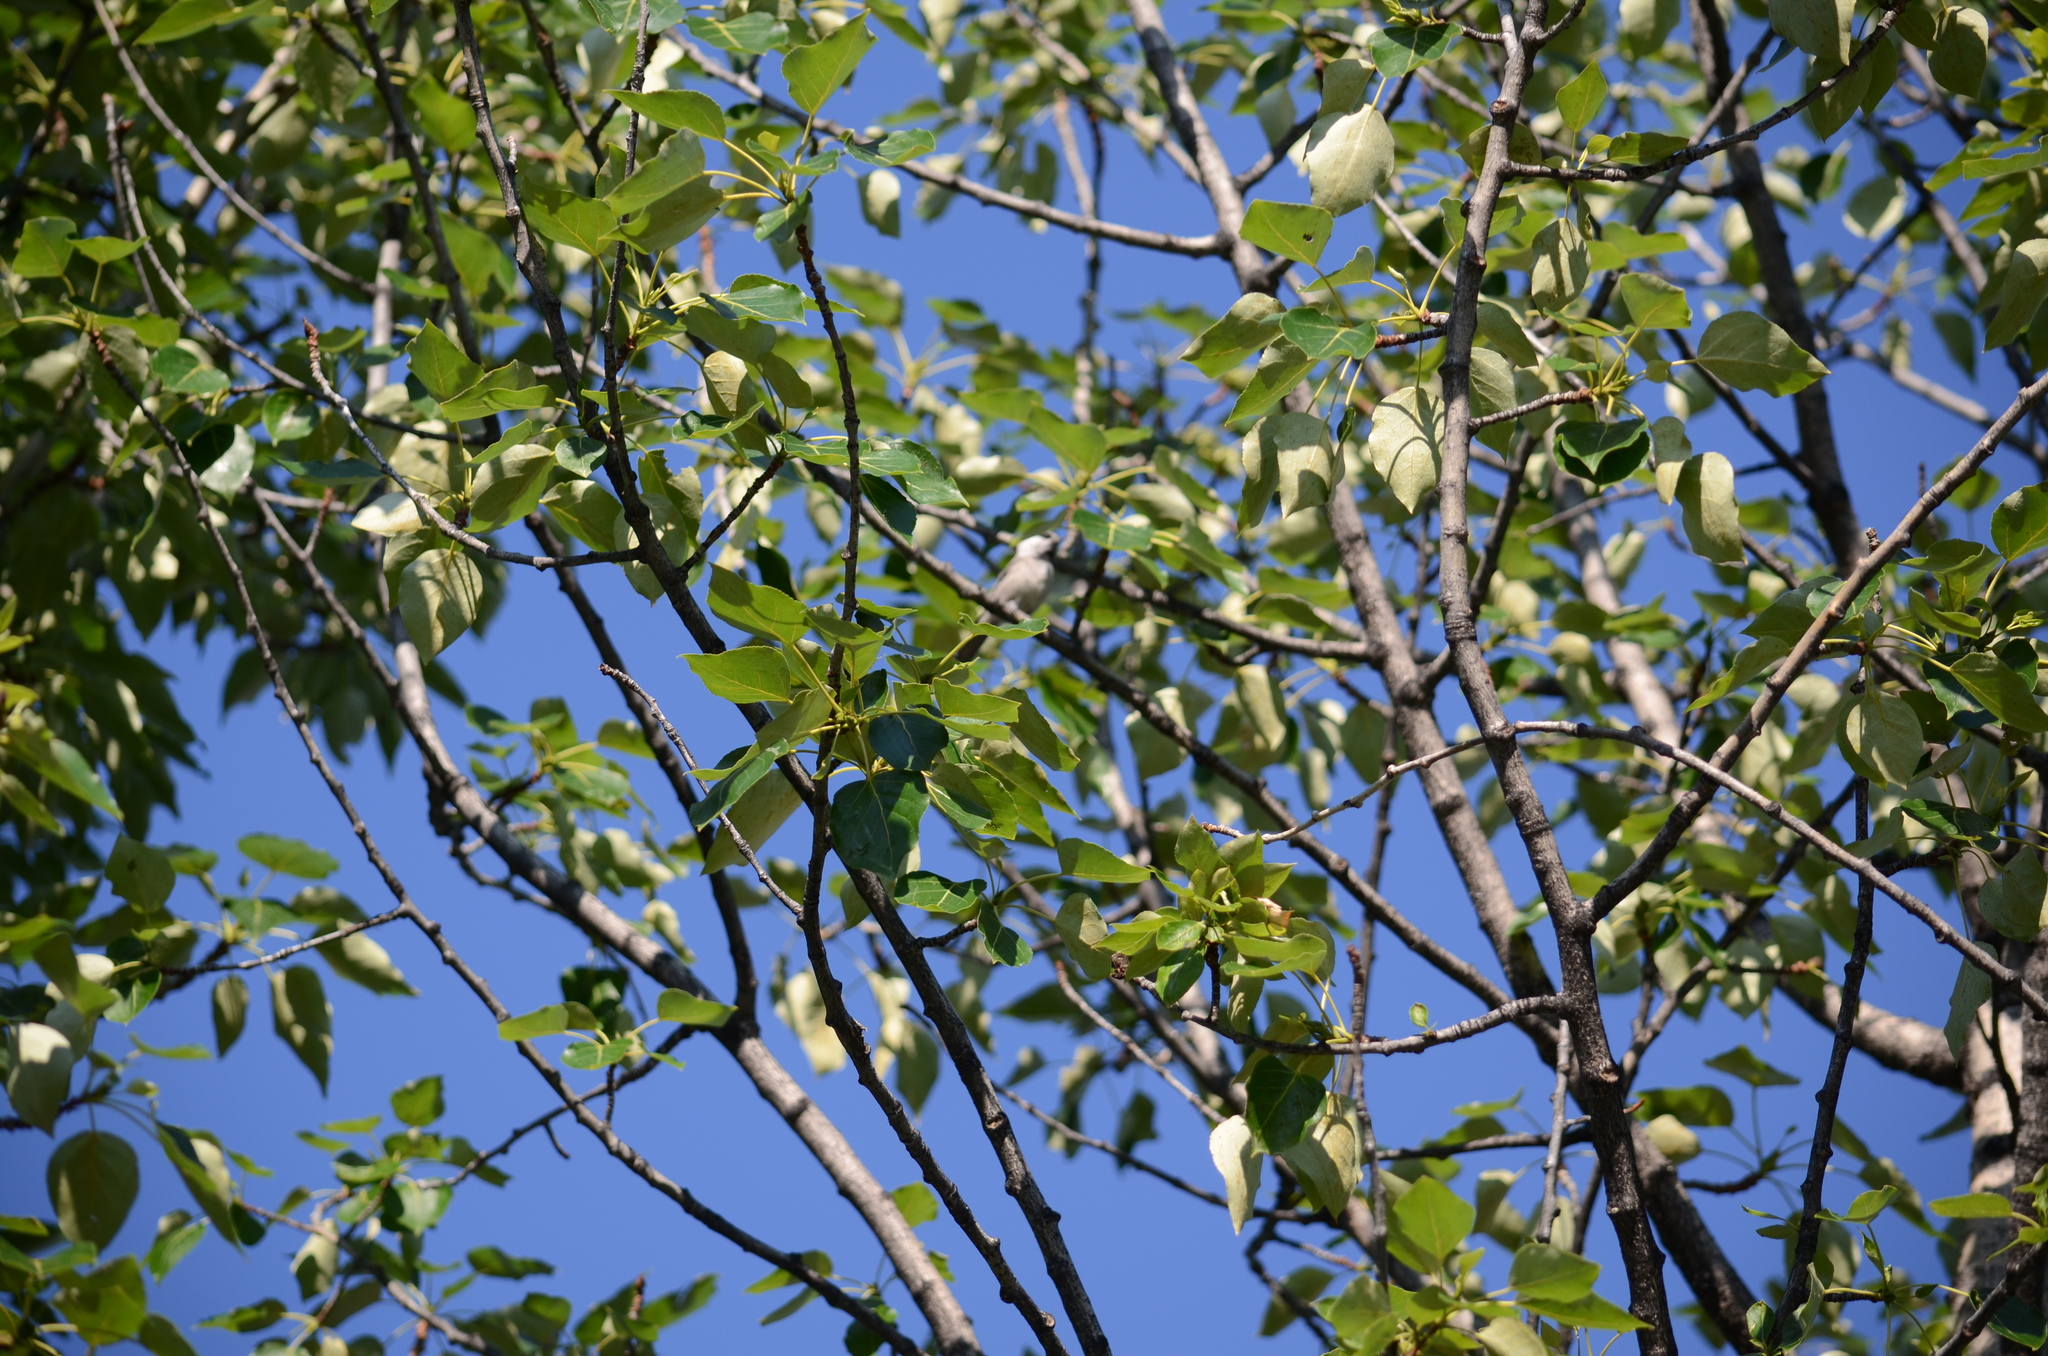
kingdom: Animalia
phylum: Chordata
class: Aves
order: Passeriformes
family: Paridae
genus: Poecile
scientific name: Poecile gambeli
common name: Mountain chickadee
